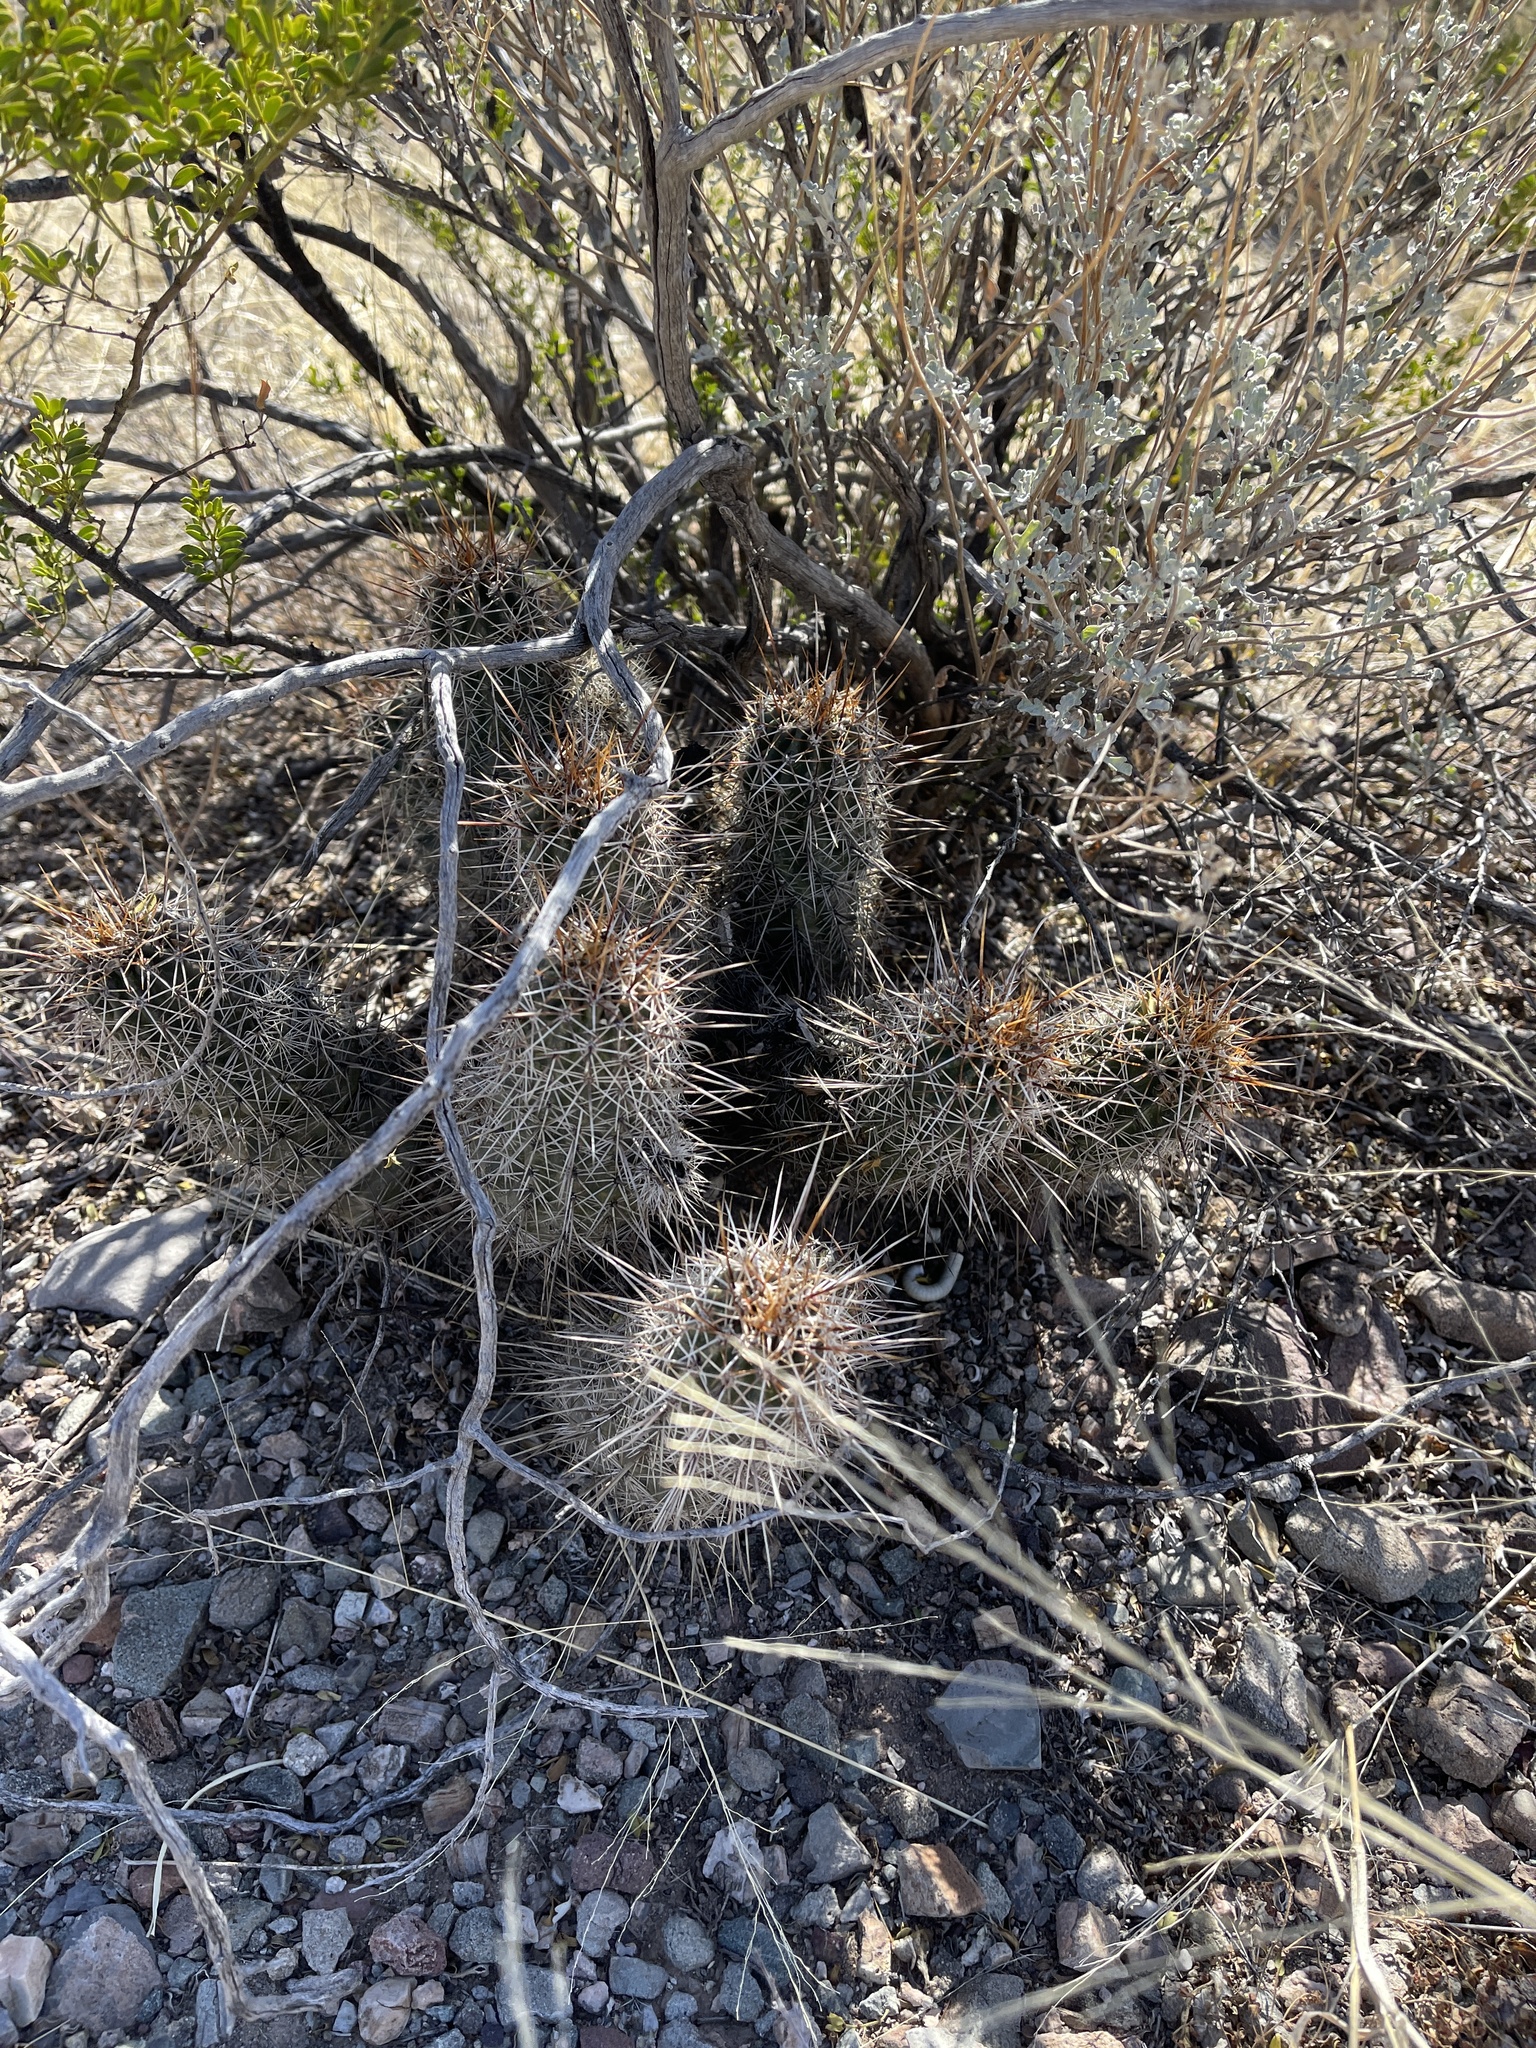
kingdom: Plantae
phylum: Tracheophyta
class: Magnoliopsida
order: Caryophyllales
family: Cactaceae
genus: Echinocereus
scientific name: Echinocereus fasciculatus
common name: Bundle hedgehog
